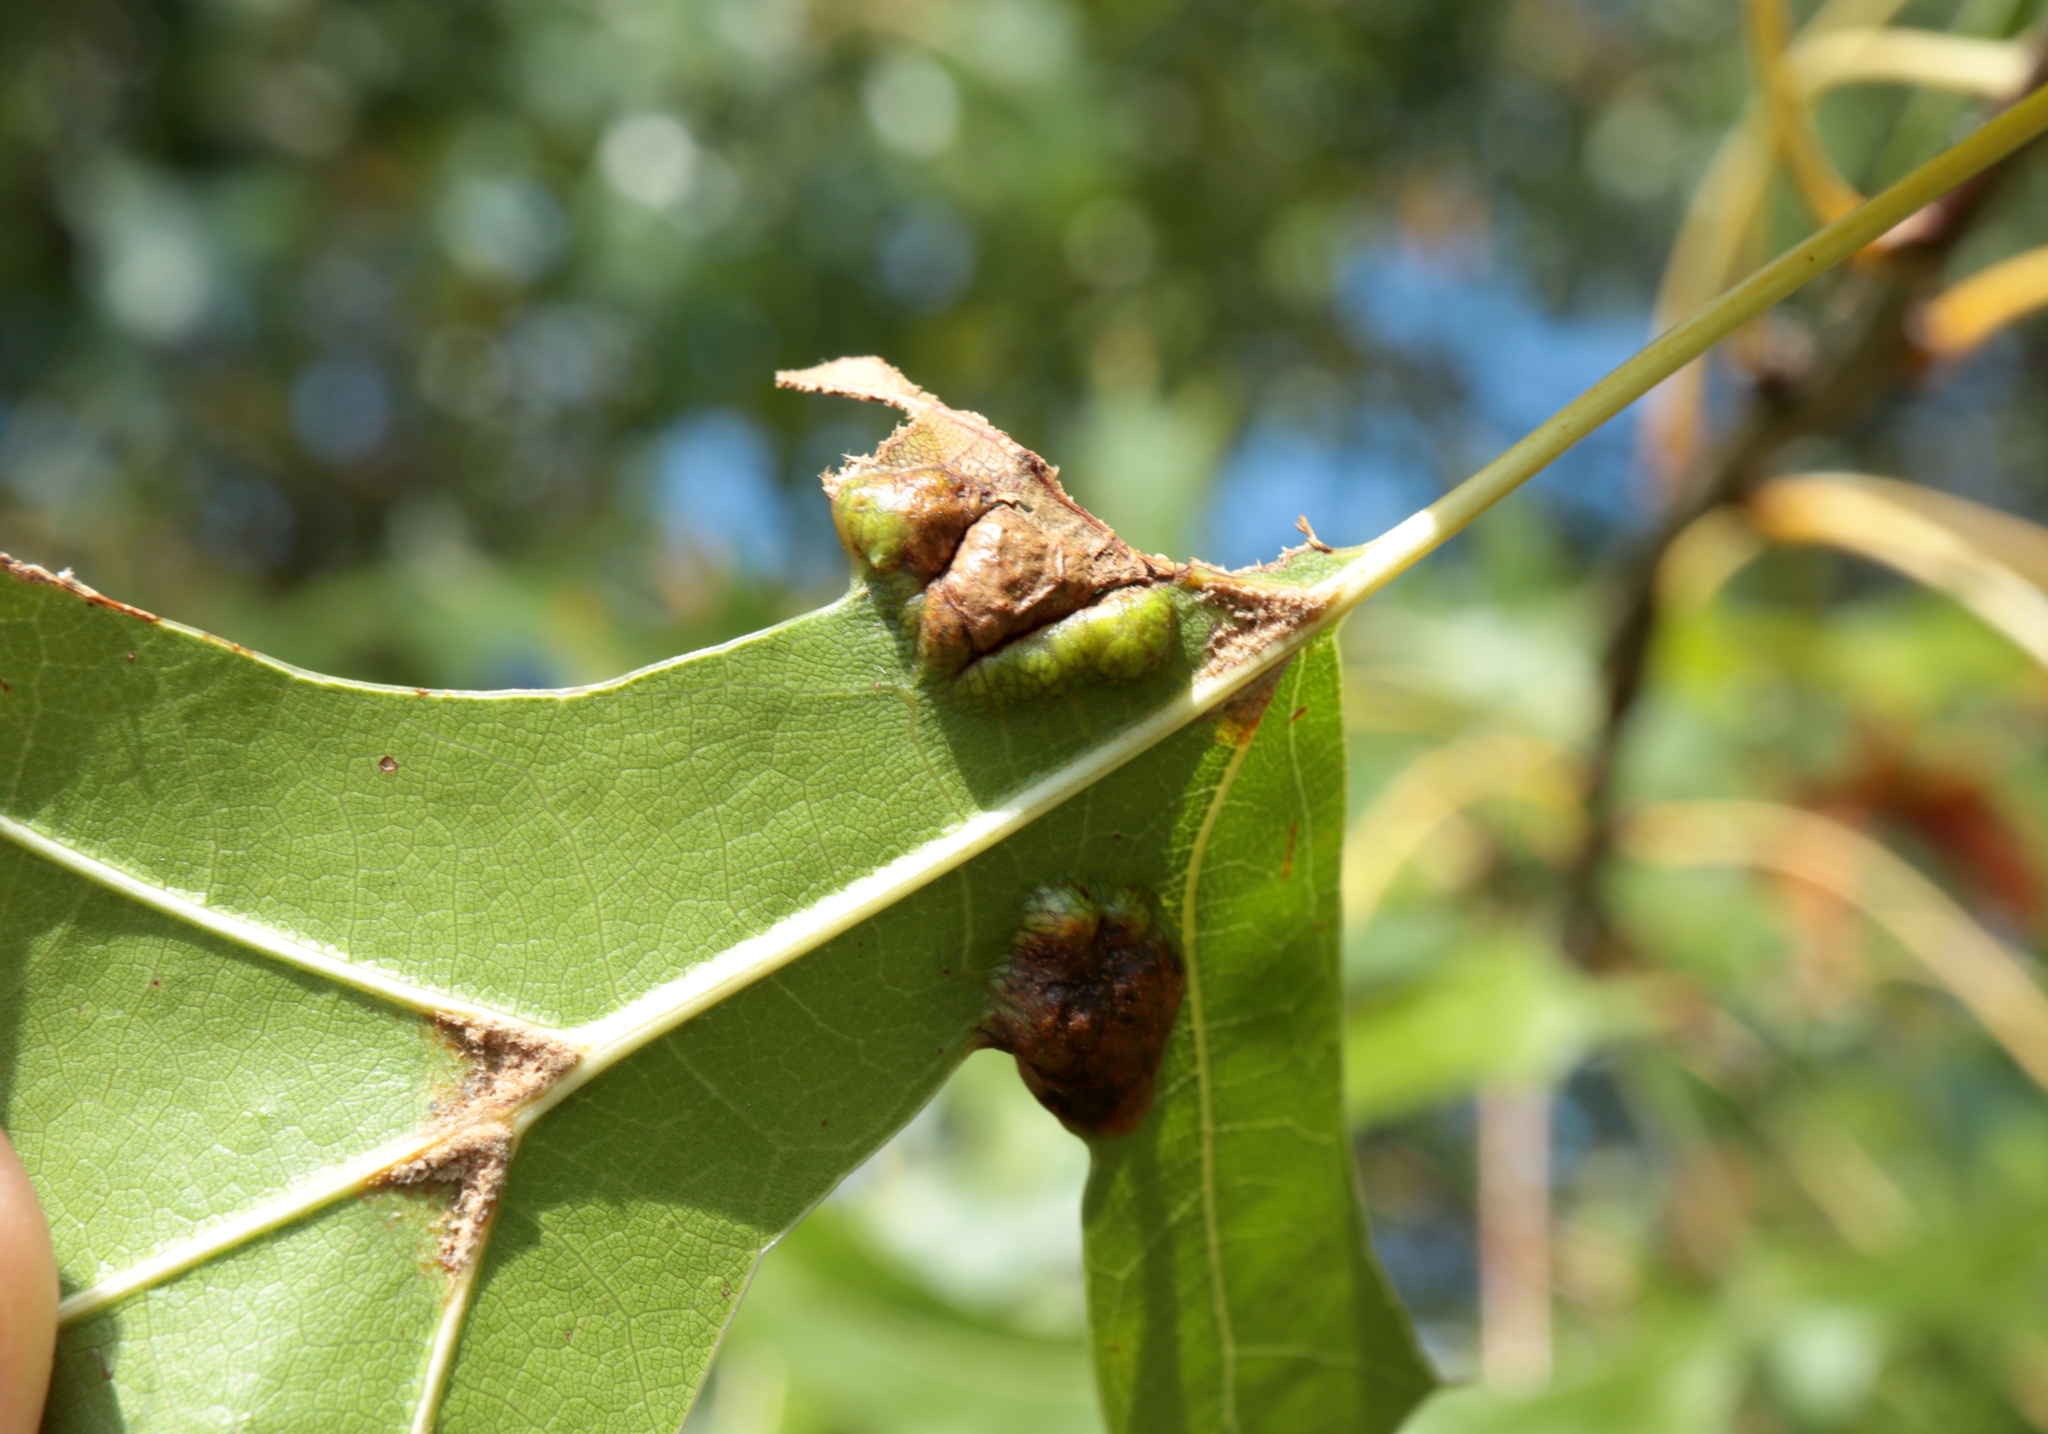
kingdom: Animalia
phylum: Arthropoda
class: Insecta
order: Hymenoptera
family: Cynipidae
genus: Callirhytis
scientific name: Callirhytis
